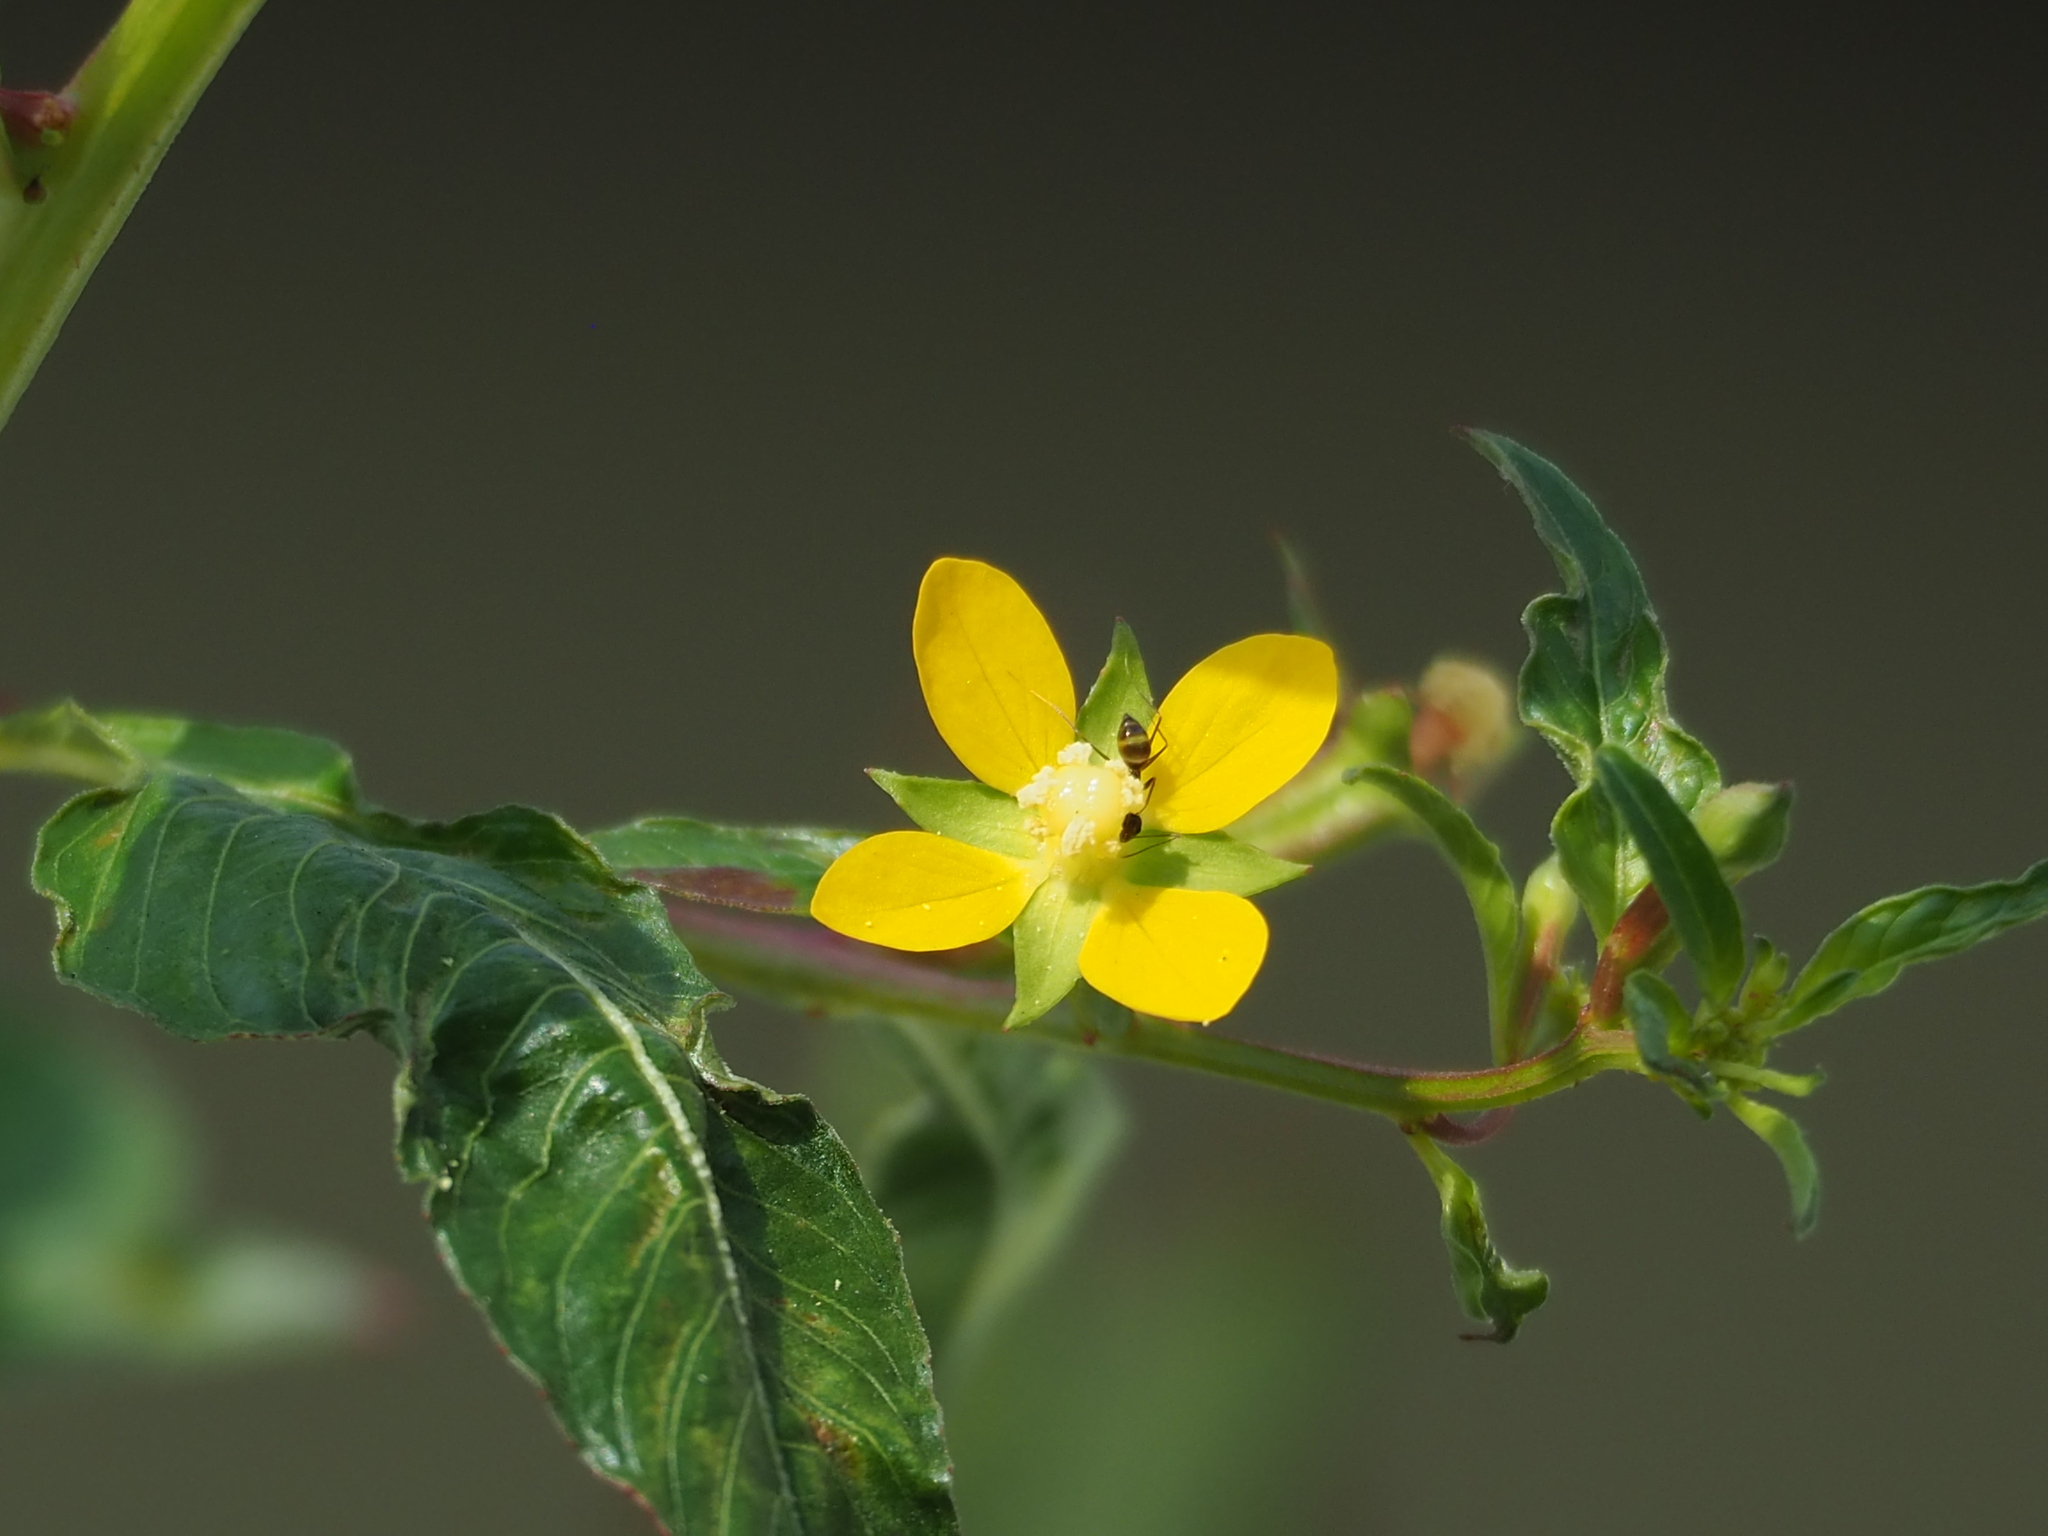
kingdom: Plantae
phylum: Tracheophyta
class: Magnoliopsida
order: Myrtales
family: Onagraceae
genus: Ludwigia
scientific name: Ludwigia erecta
